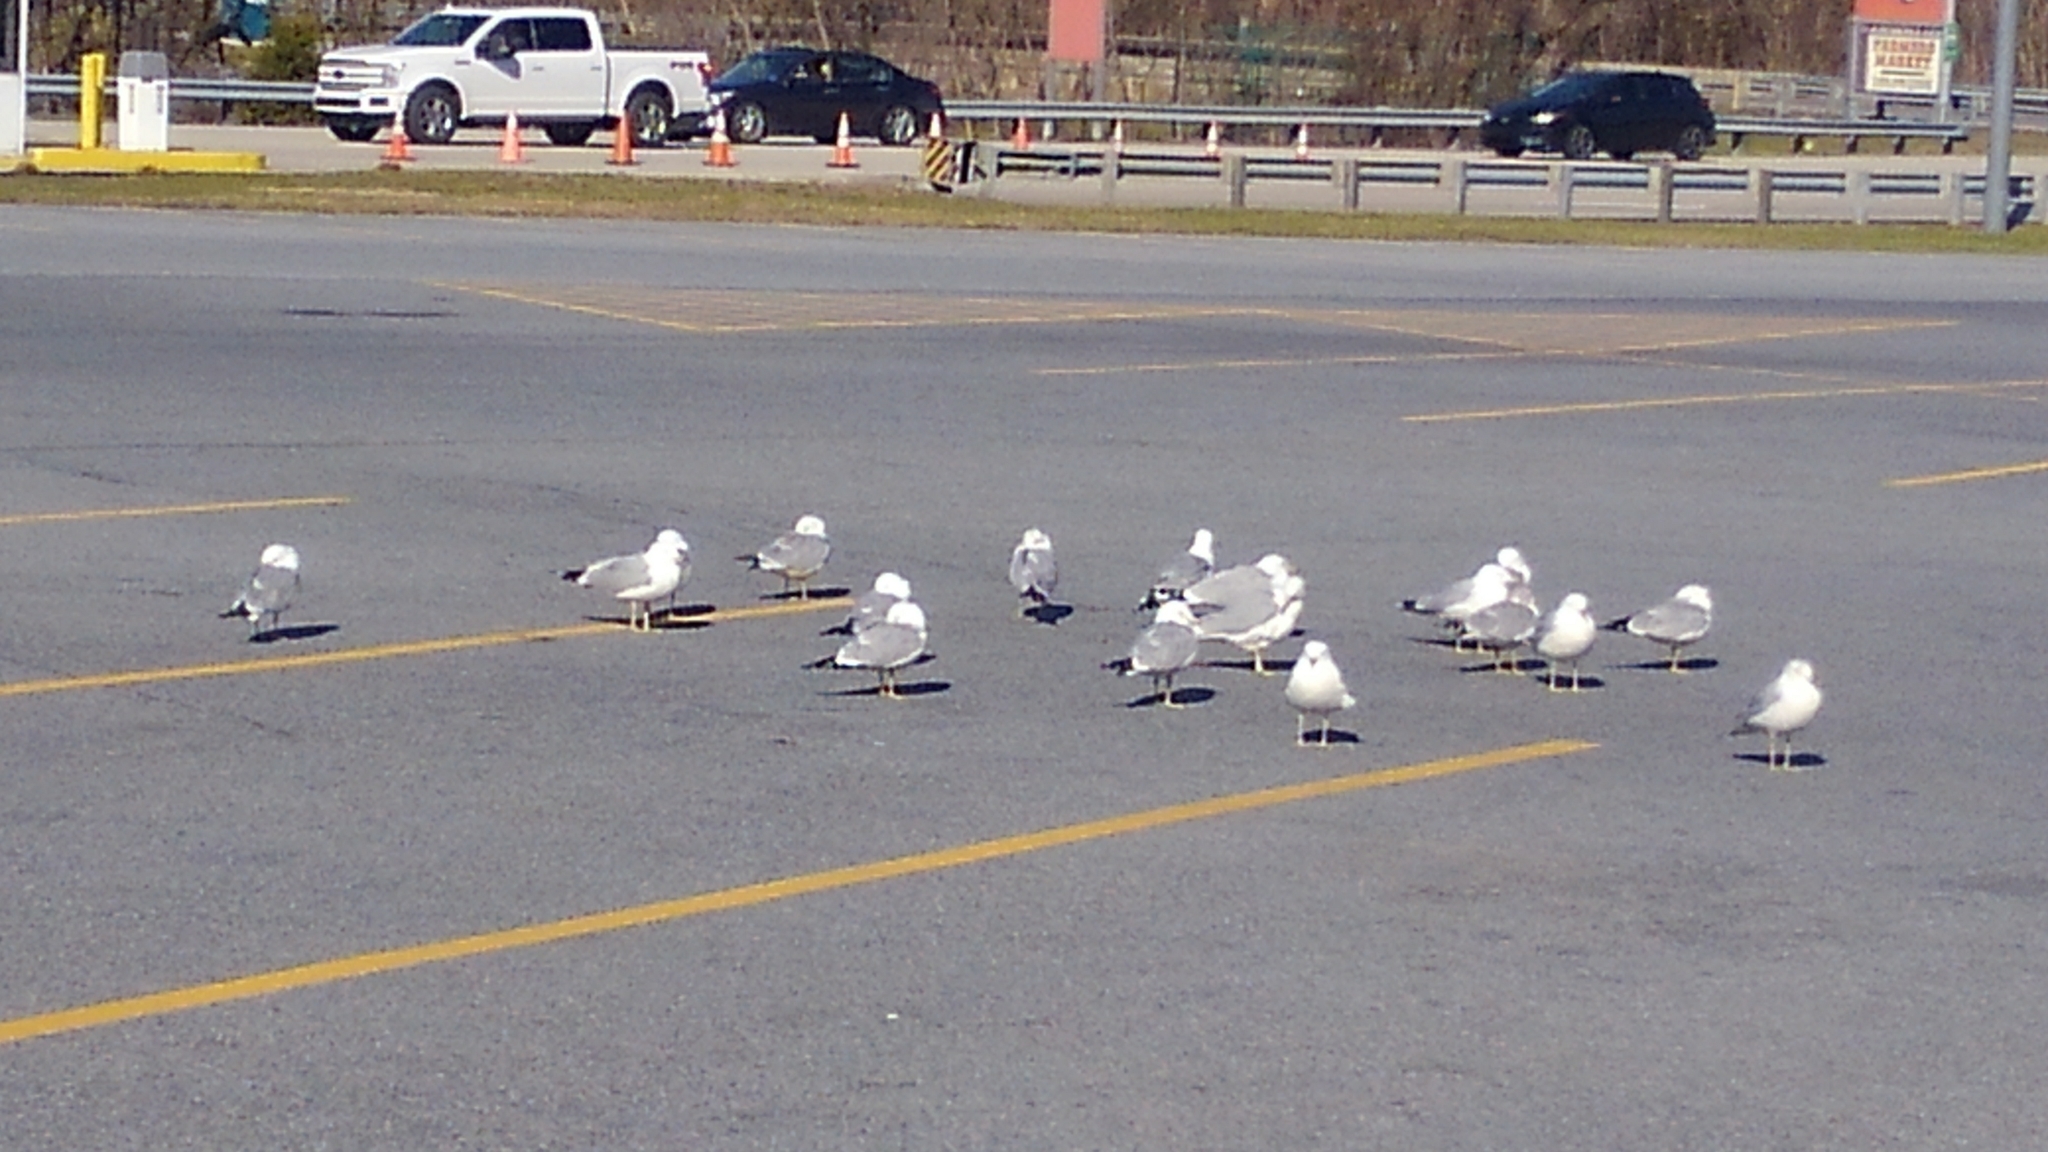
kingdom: Animalia
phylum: Chordata
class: Aves
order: Charadriiformes
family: Laridae
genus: Larus
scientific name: Larus delawarensis
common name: Ring-billed gull
